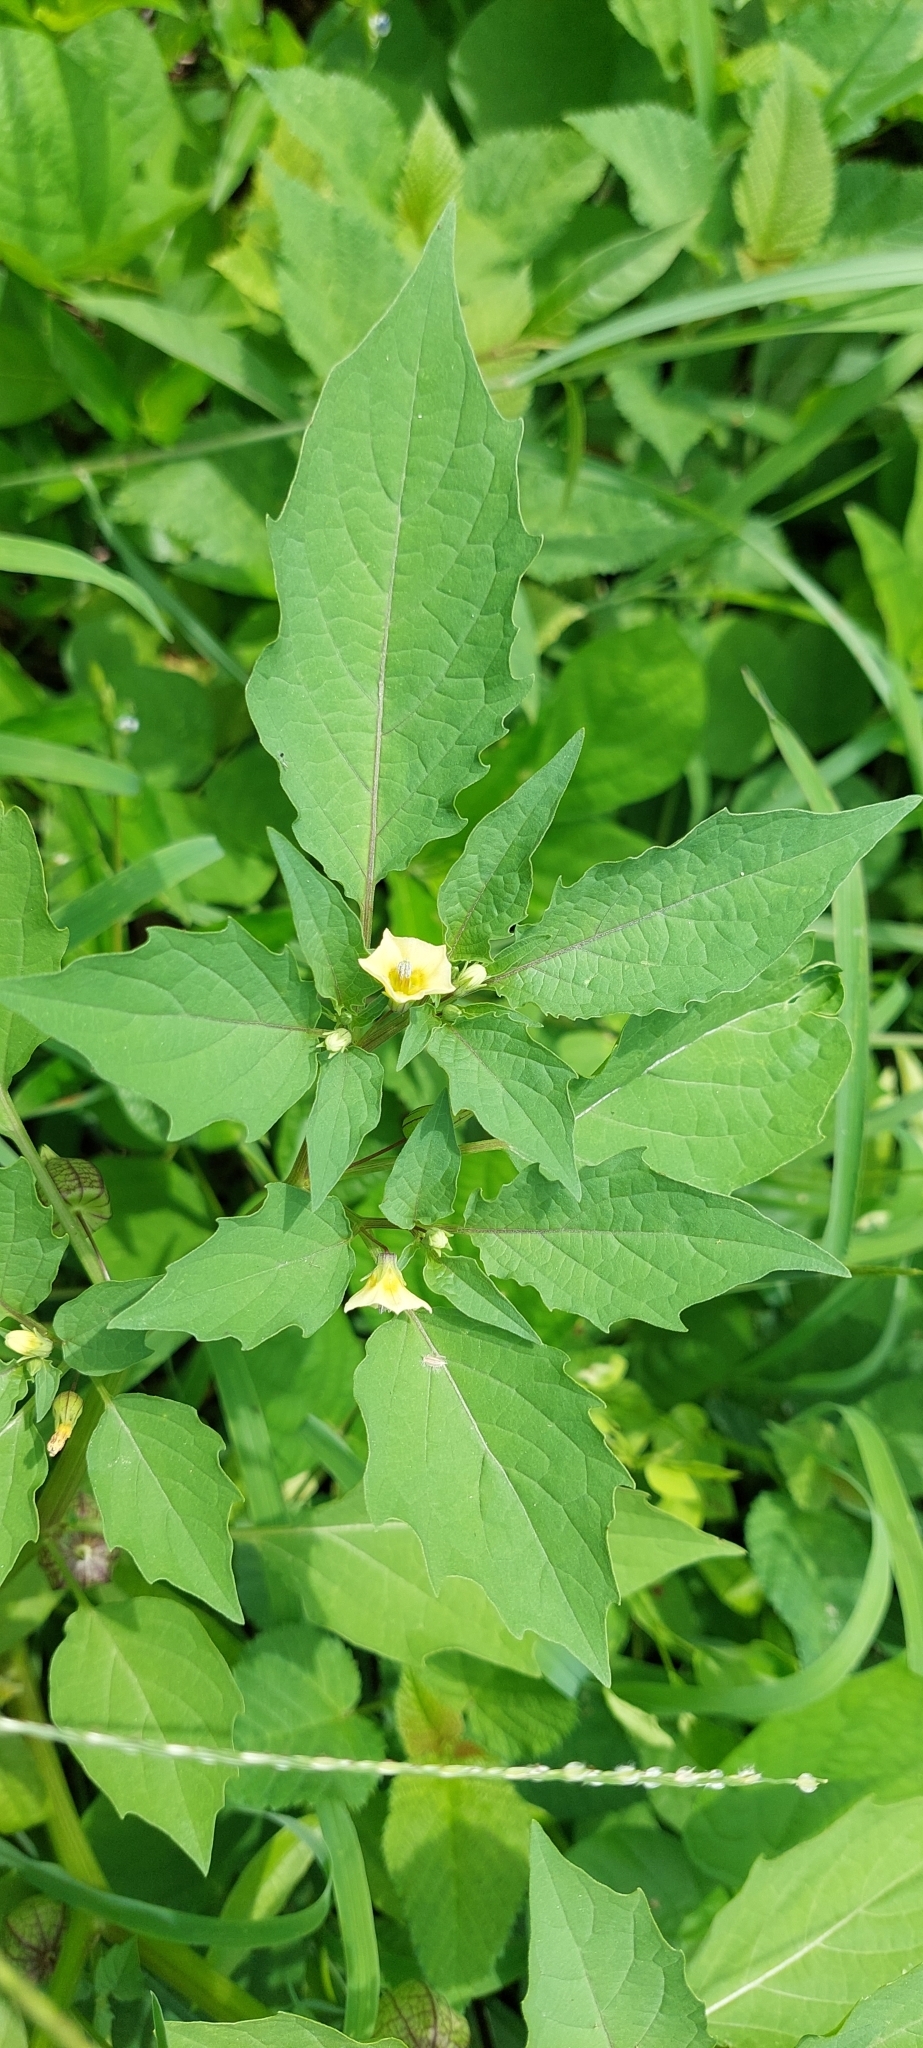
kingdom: Plantae
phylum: Tracheophyta
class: Magnoliopsida
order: Solanales
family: Solanaceae
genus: Physalis
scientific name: Physalis angulata
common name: Angular winter-cherry
